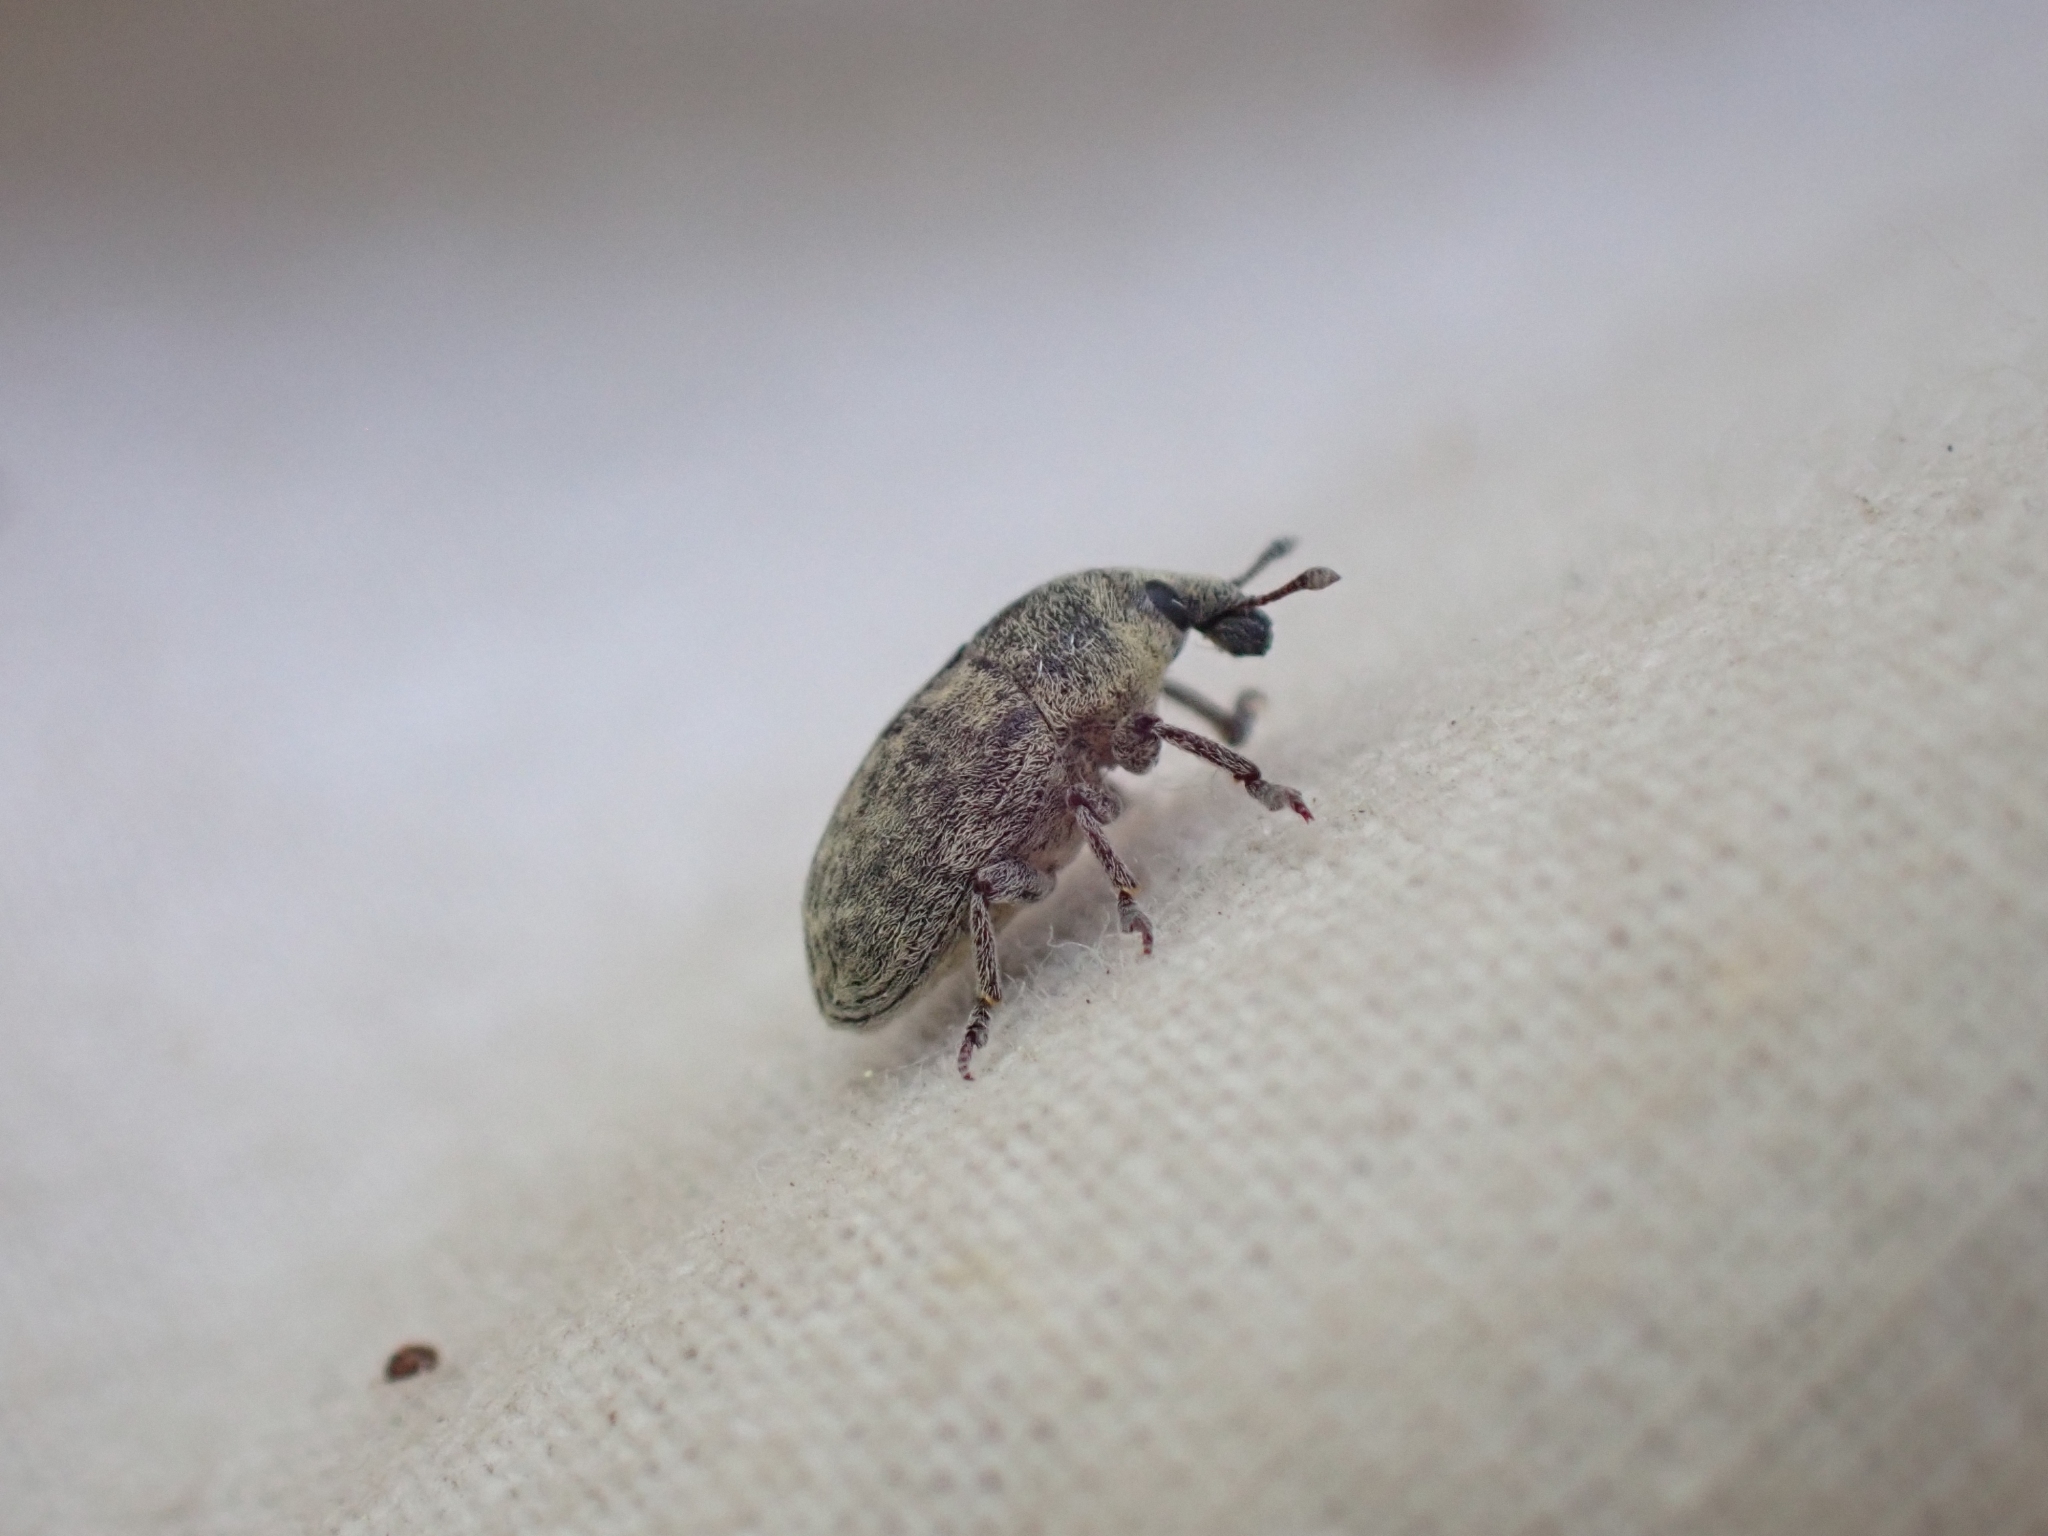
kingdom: Animalia
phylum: Arthropoda
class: Insecta
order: Coleoptera
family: Curculionidae
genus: Larinus
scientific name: Larinus minutus
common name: Weevil
